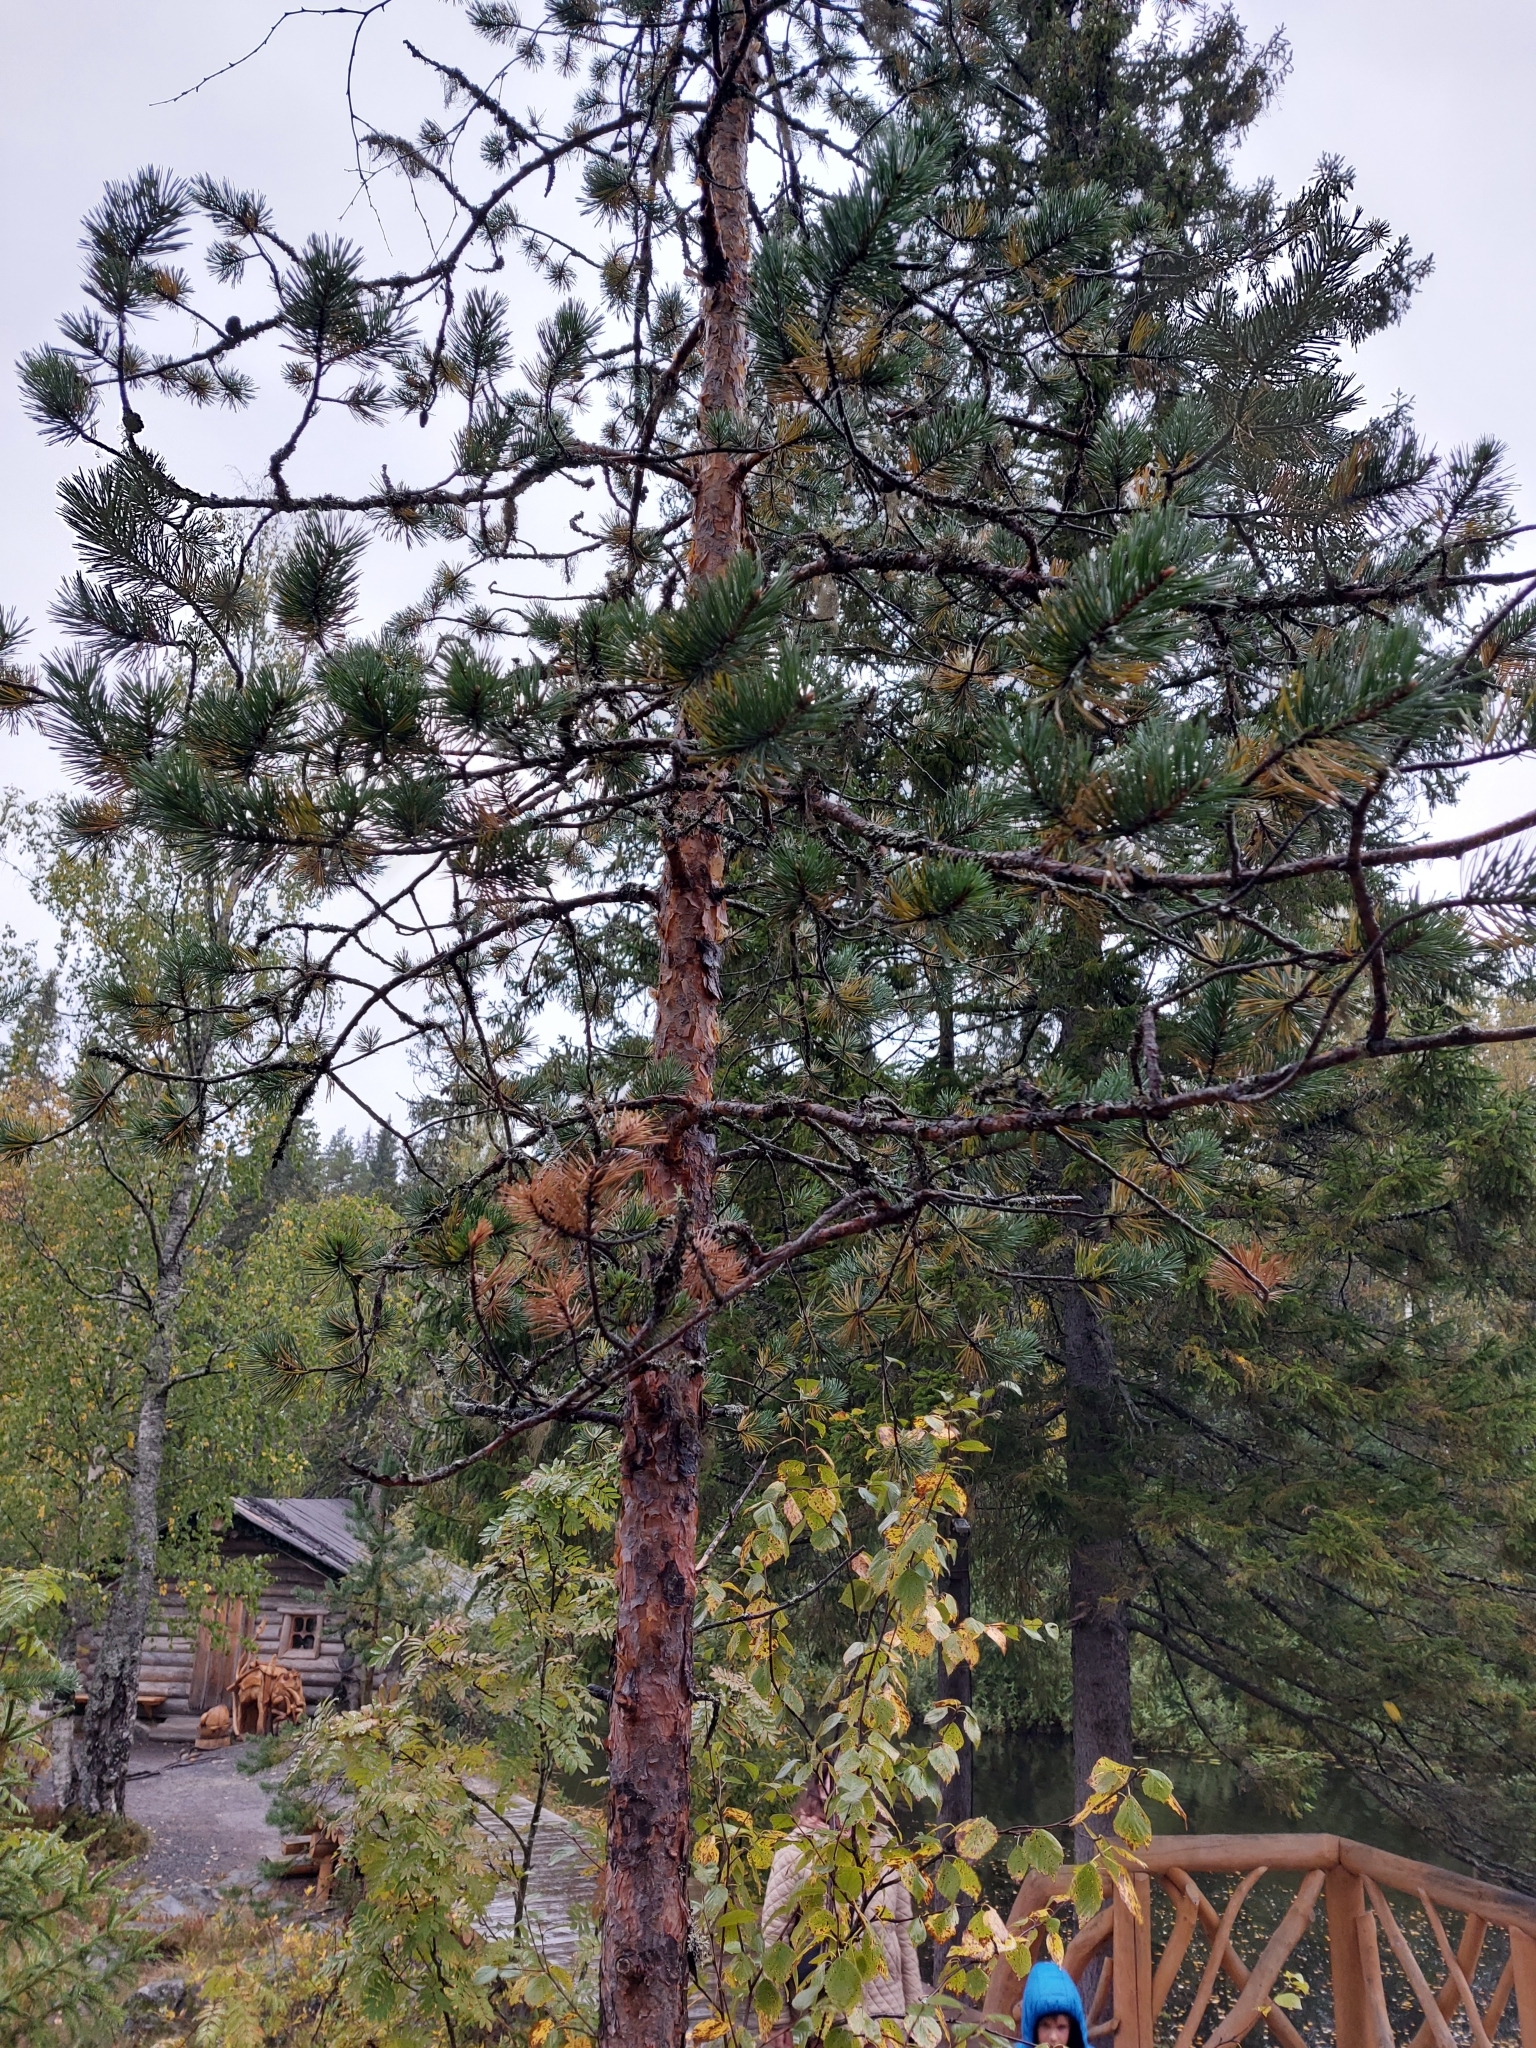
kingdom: Plantae
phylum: Tracheophyta
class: Pinopsida
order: Pinales
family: Pinaceae
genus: Pinus
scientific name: Pinus sylvestris
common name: Scots pine
